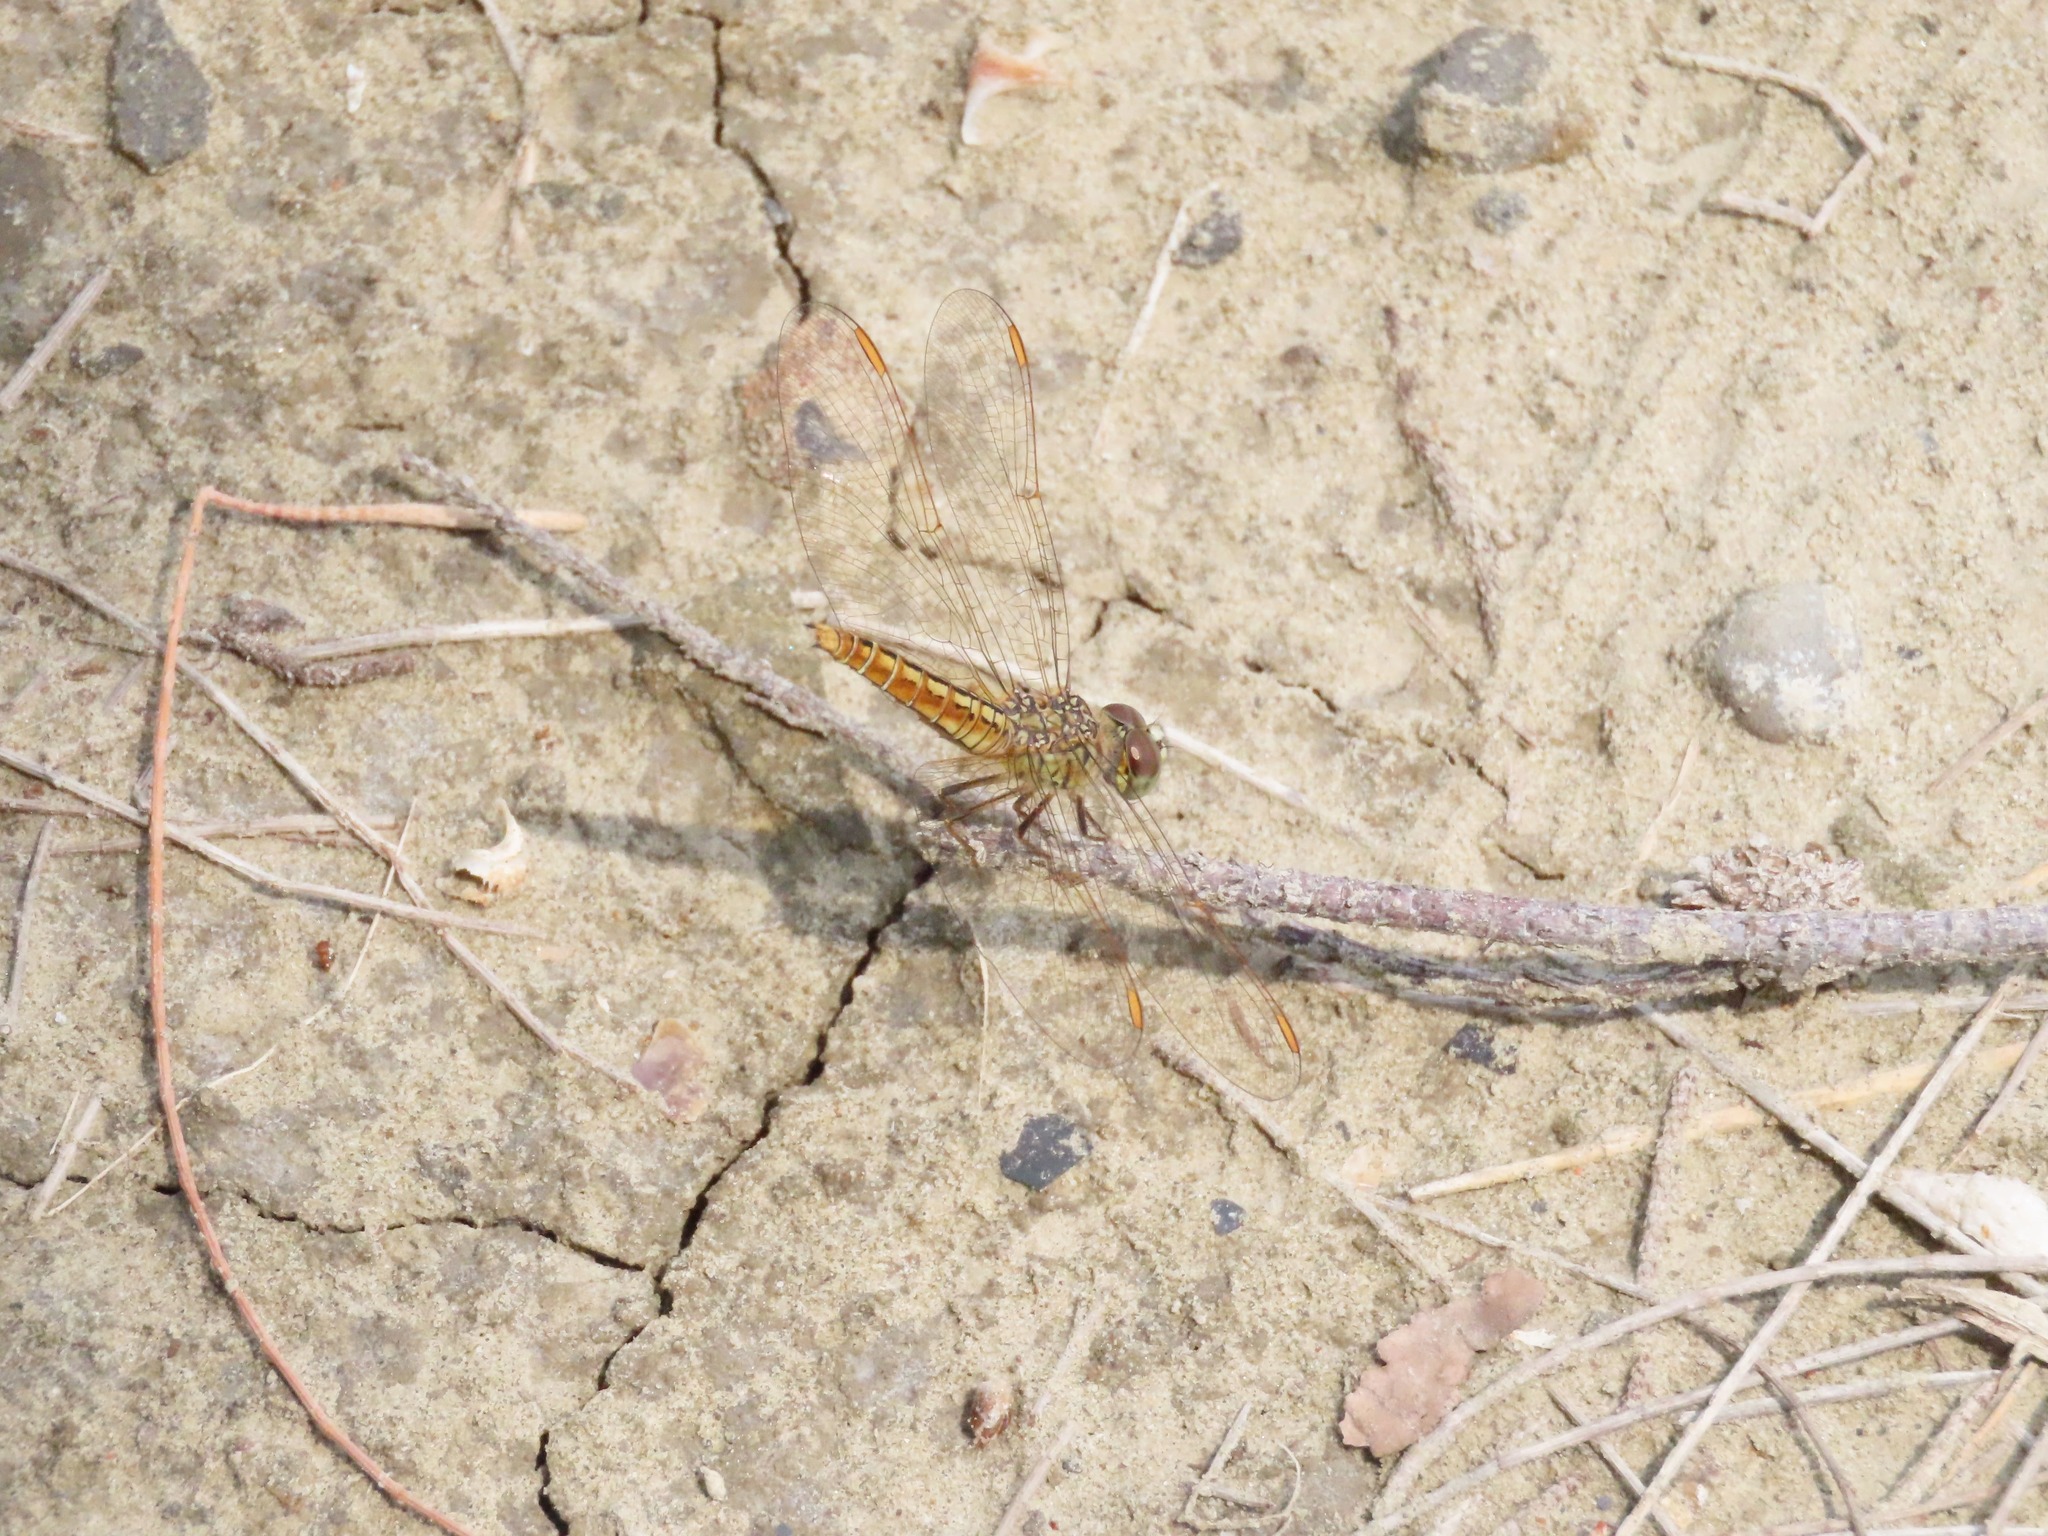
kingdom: Animalia
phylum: Arthropoda
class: Insecta
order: Odonata
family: Libellulidae
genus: Brachythemis
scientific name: Brachythemis contaminata
